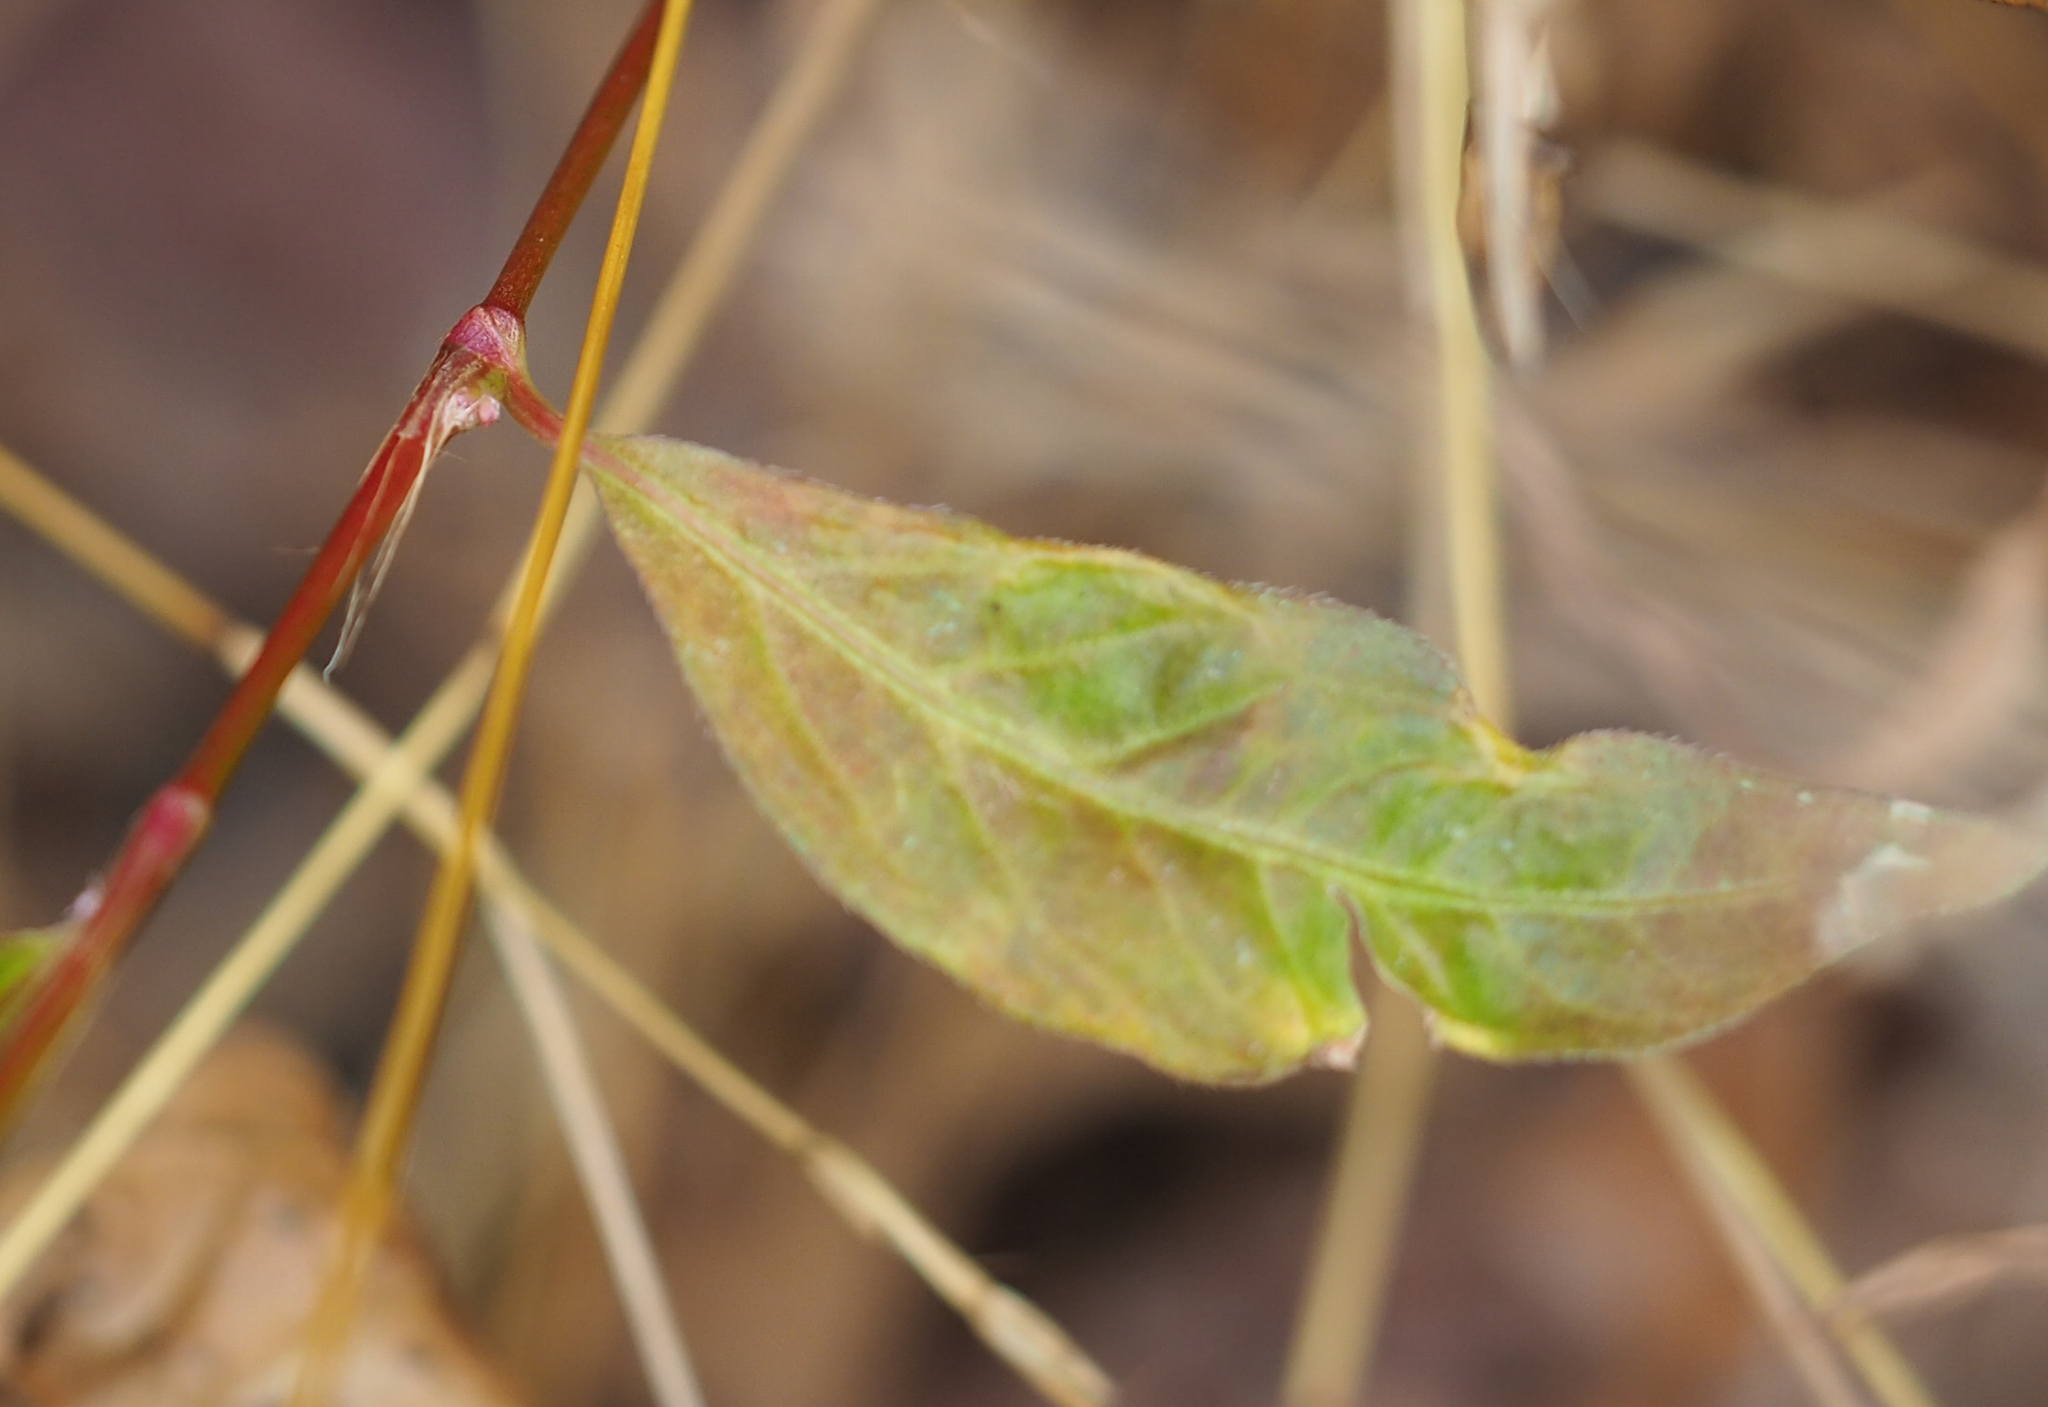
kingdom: Plantae
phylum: Tracheophyta
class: Magnoliopsida
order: Caryophyllales
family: Polygonaceae
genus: Persicaria
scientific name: Persicaria longiseta
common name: Bristly lady's-thumb
